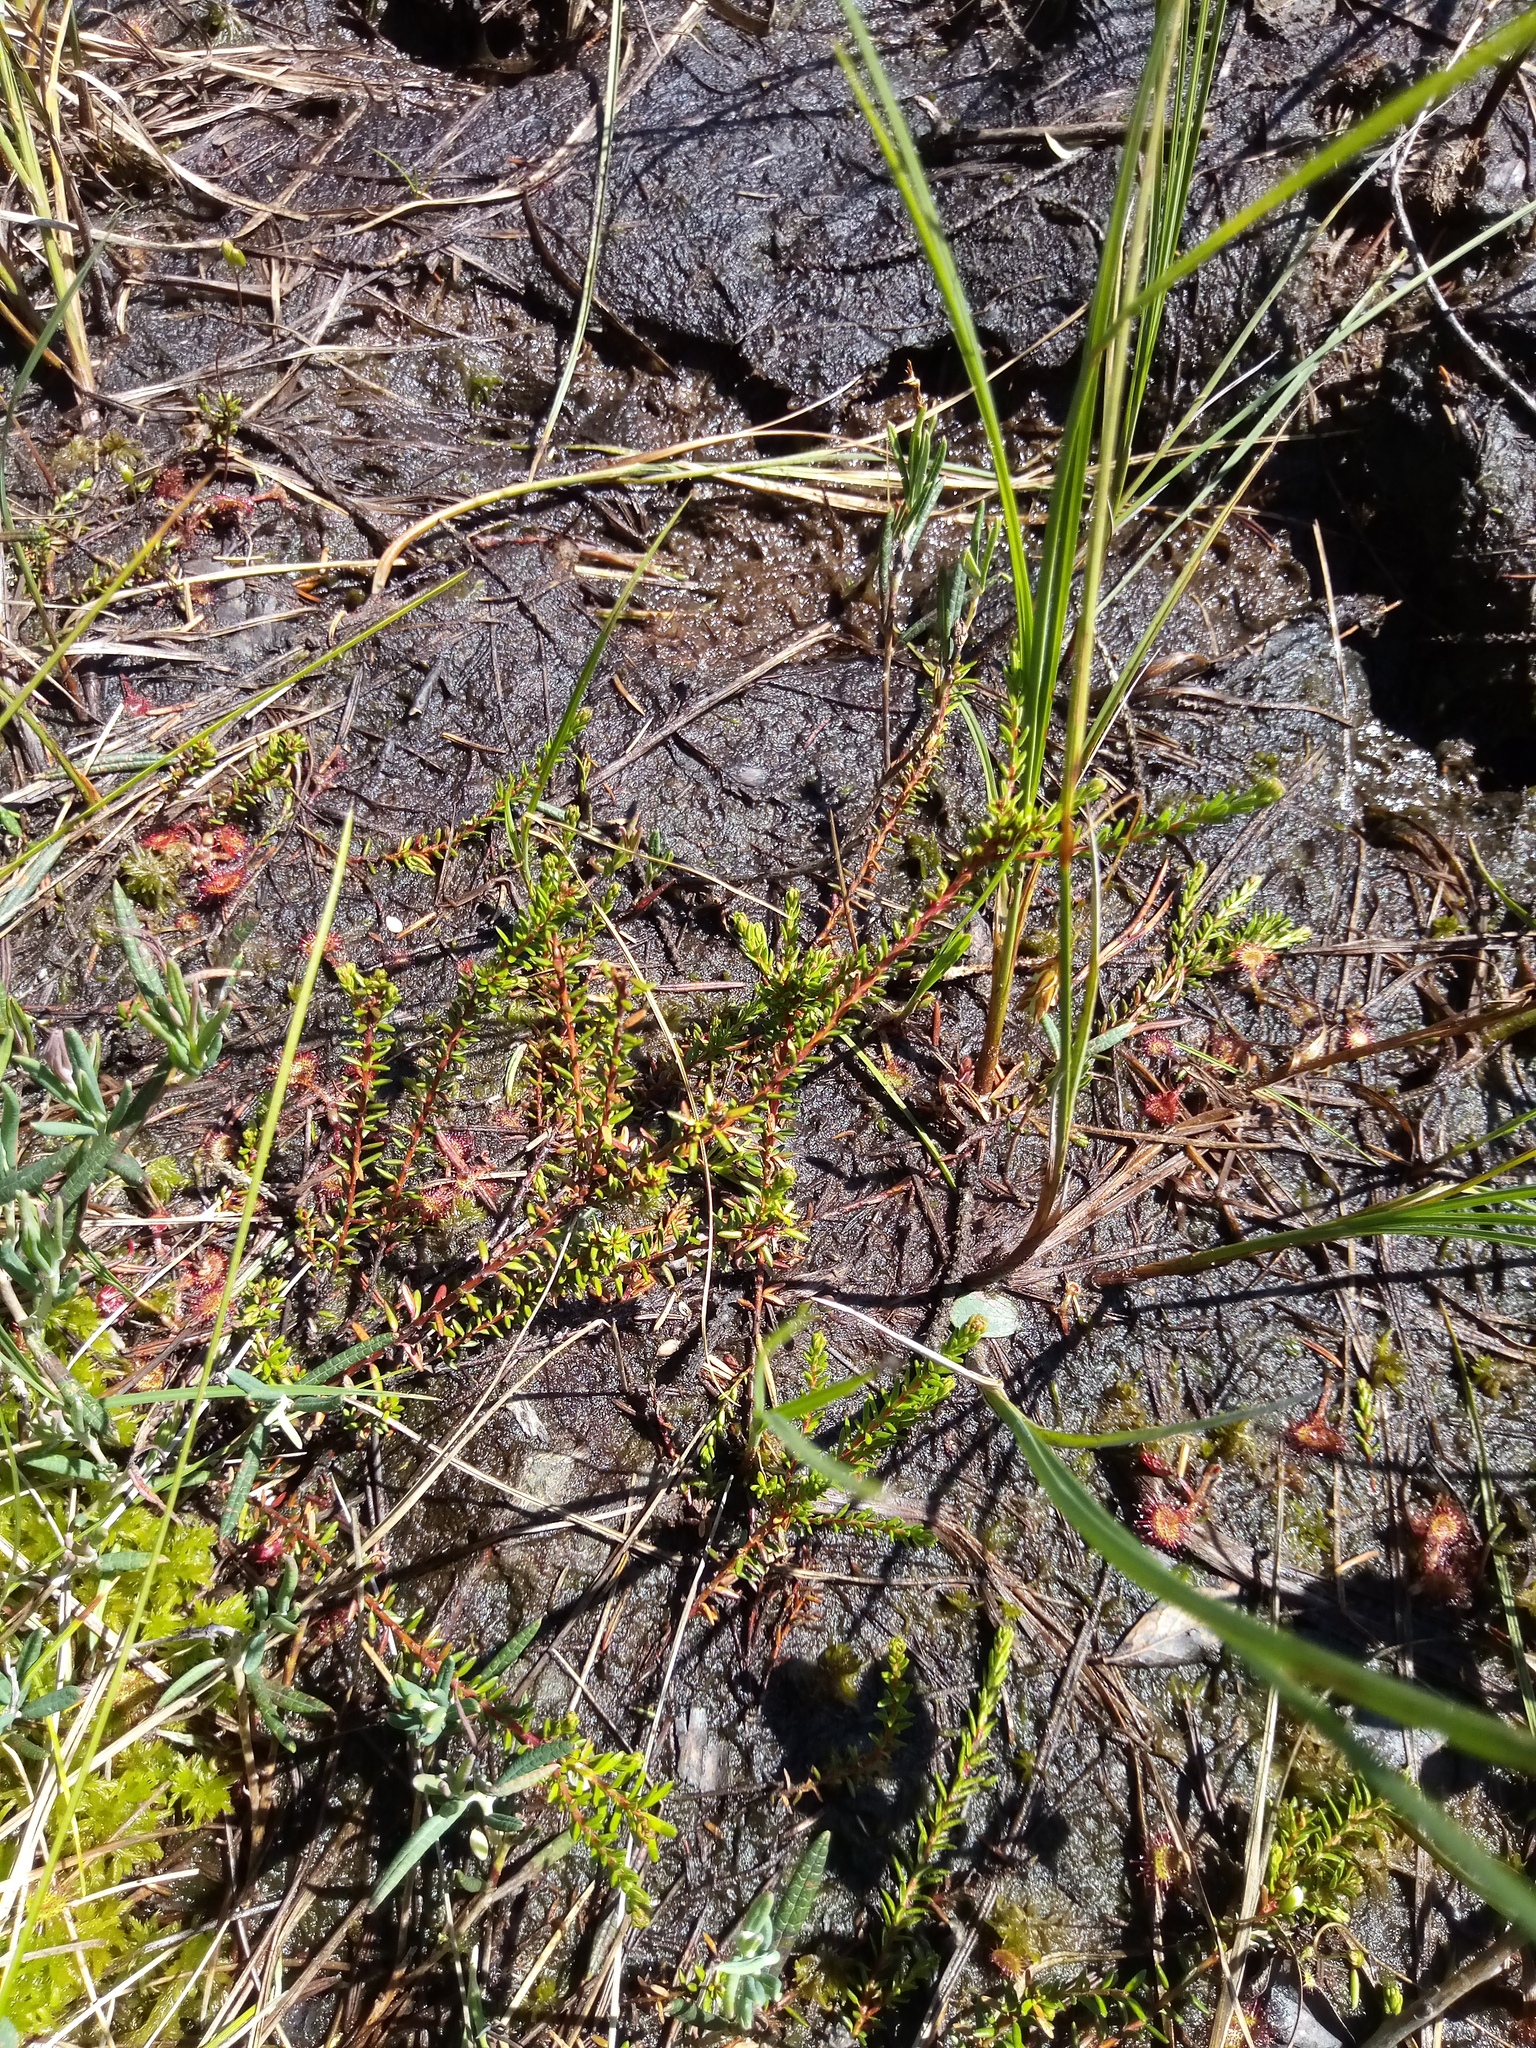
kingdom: Plantae
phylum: Tracheophyta
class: Magnoliopsida
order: Ericales
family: Ericaceae
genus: Empetrum
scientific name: Empetrum nigrum
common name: Black crowberry
